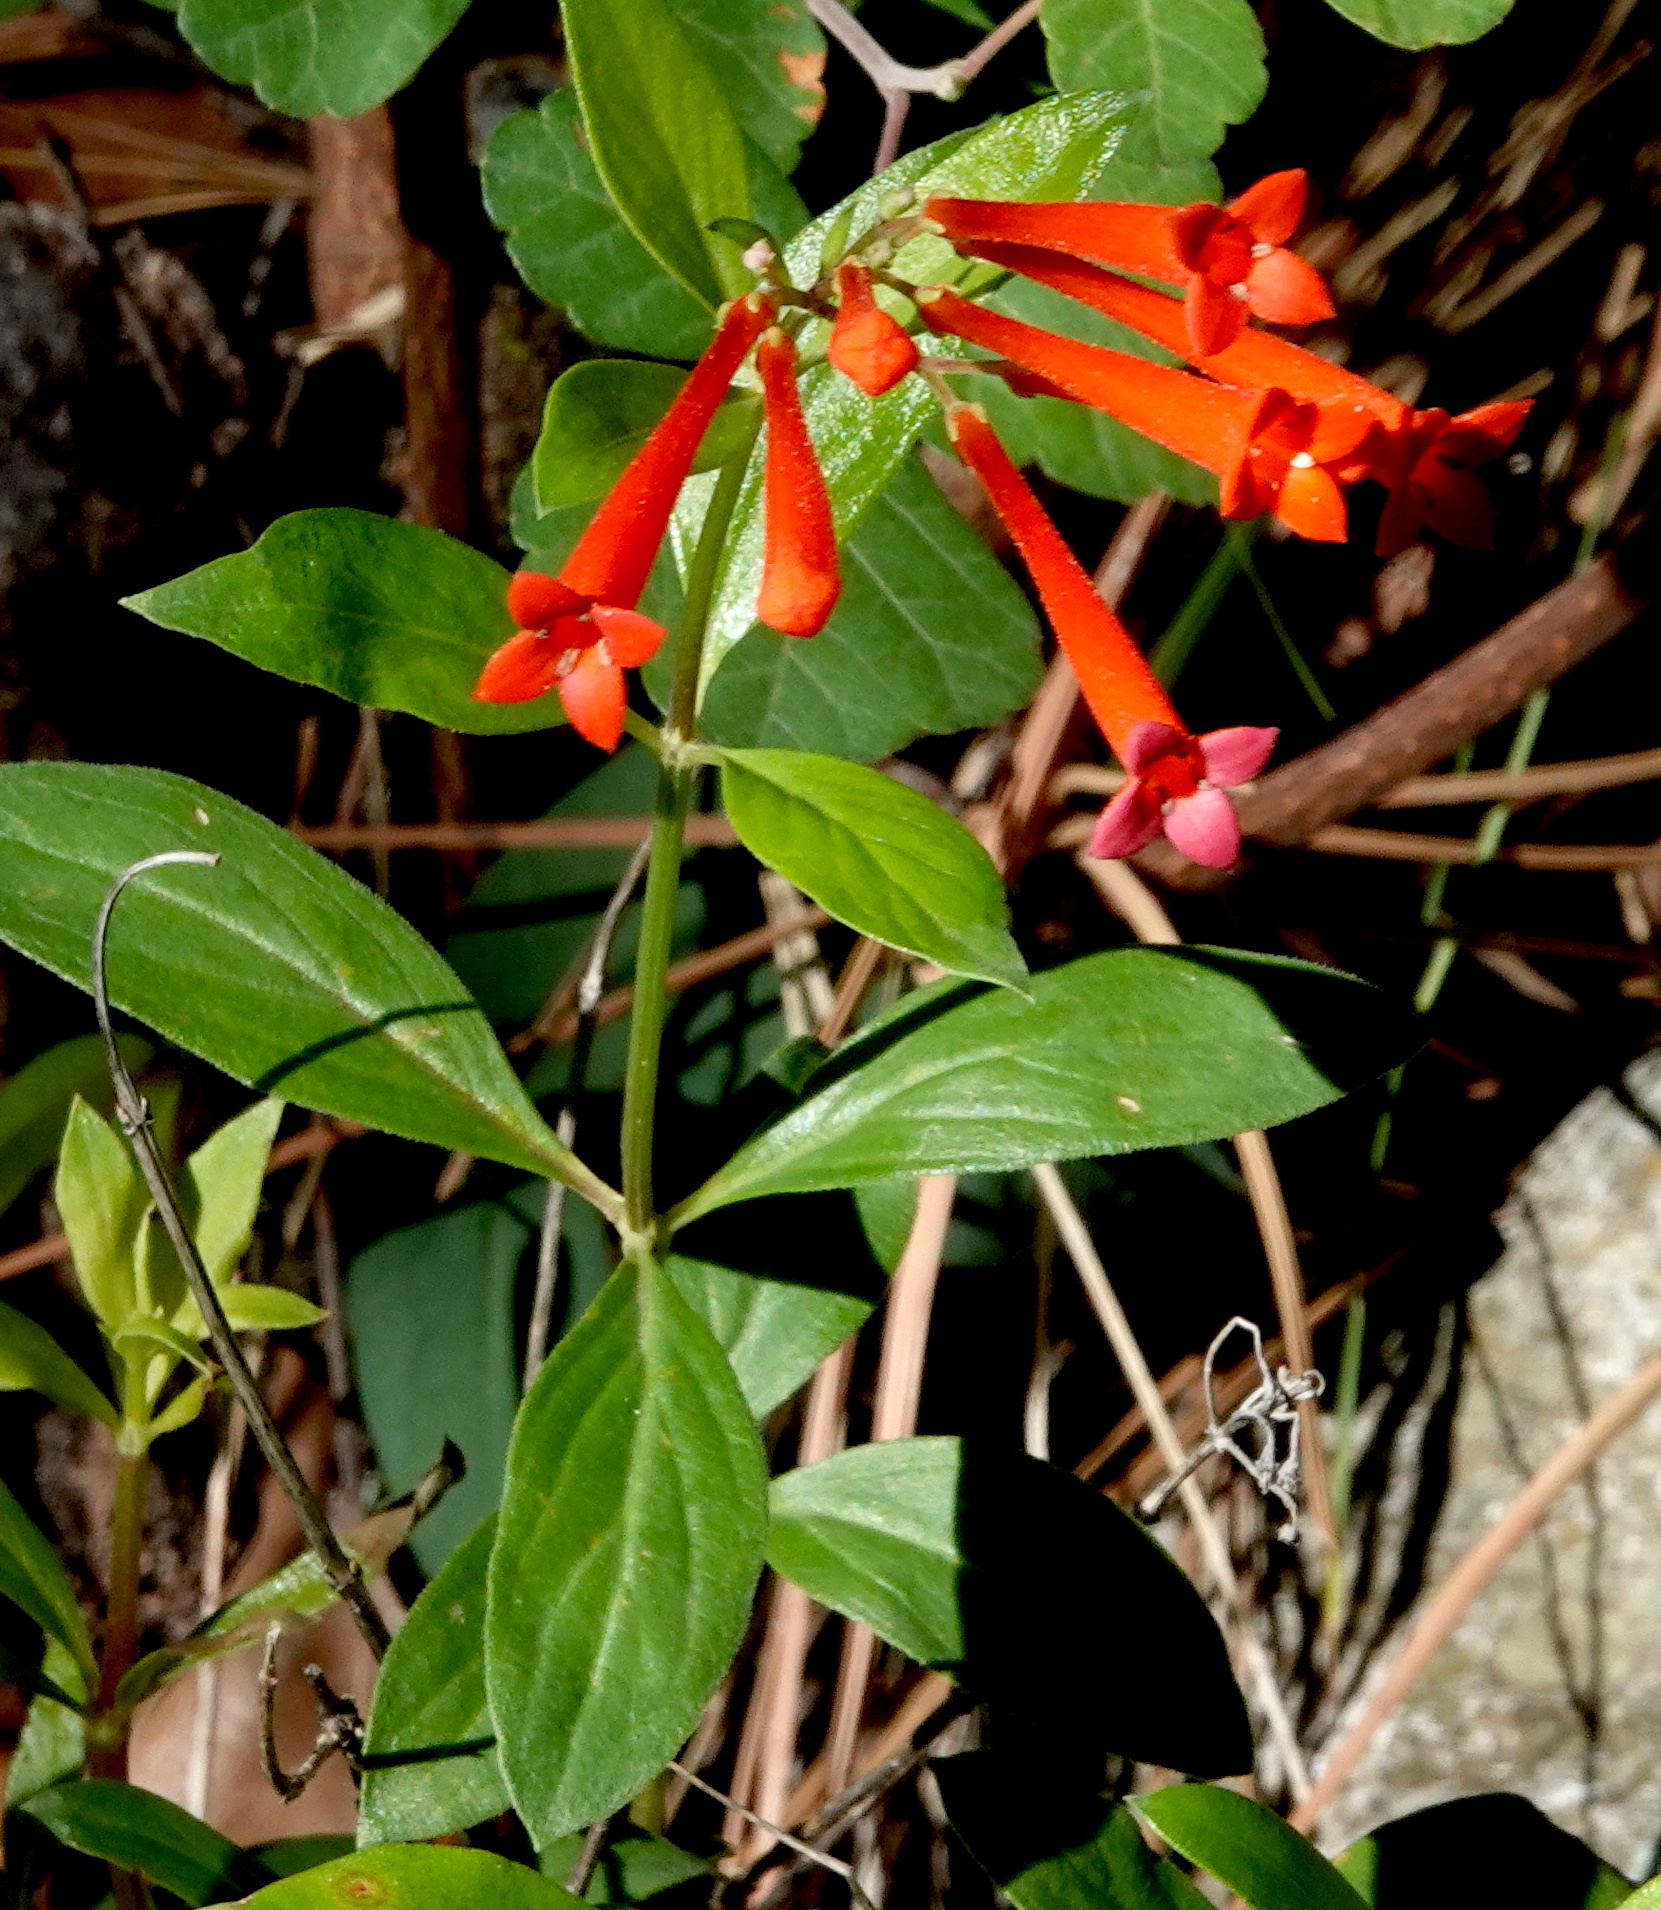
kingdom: Plantae
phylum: Tracheophyta
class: Magnoliopsida
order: Gentianales
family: Rubiaceae
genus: Bouvardia
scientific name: Bouvardia ternifolia
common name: Scarlet bouvardia
